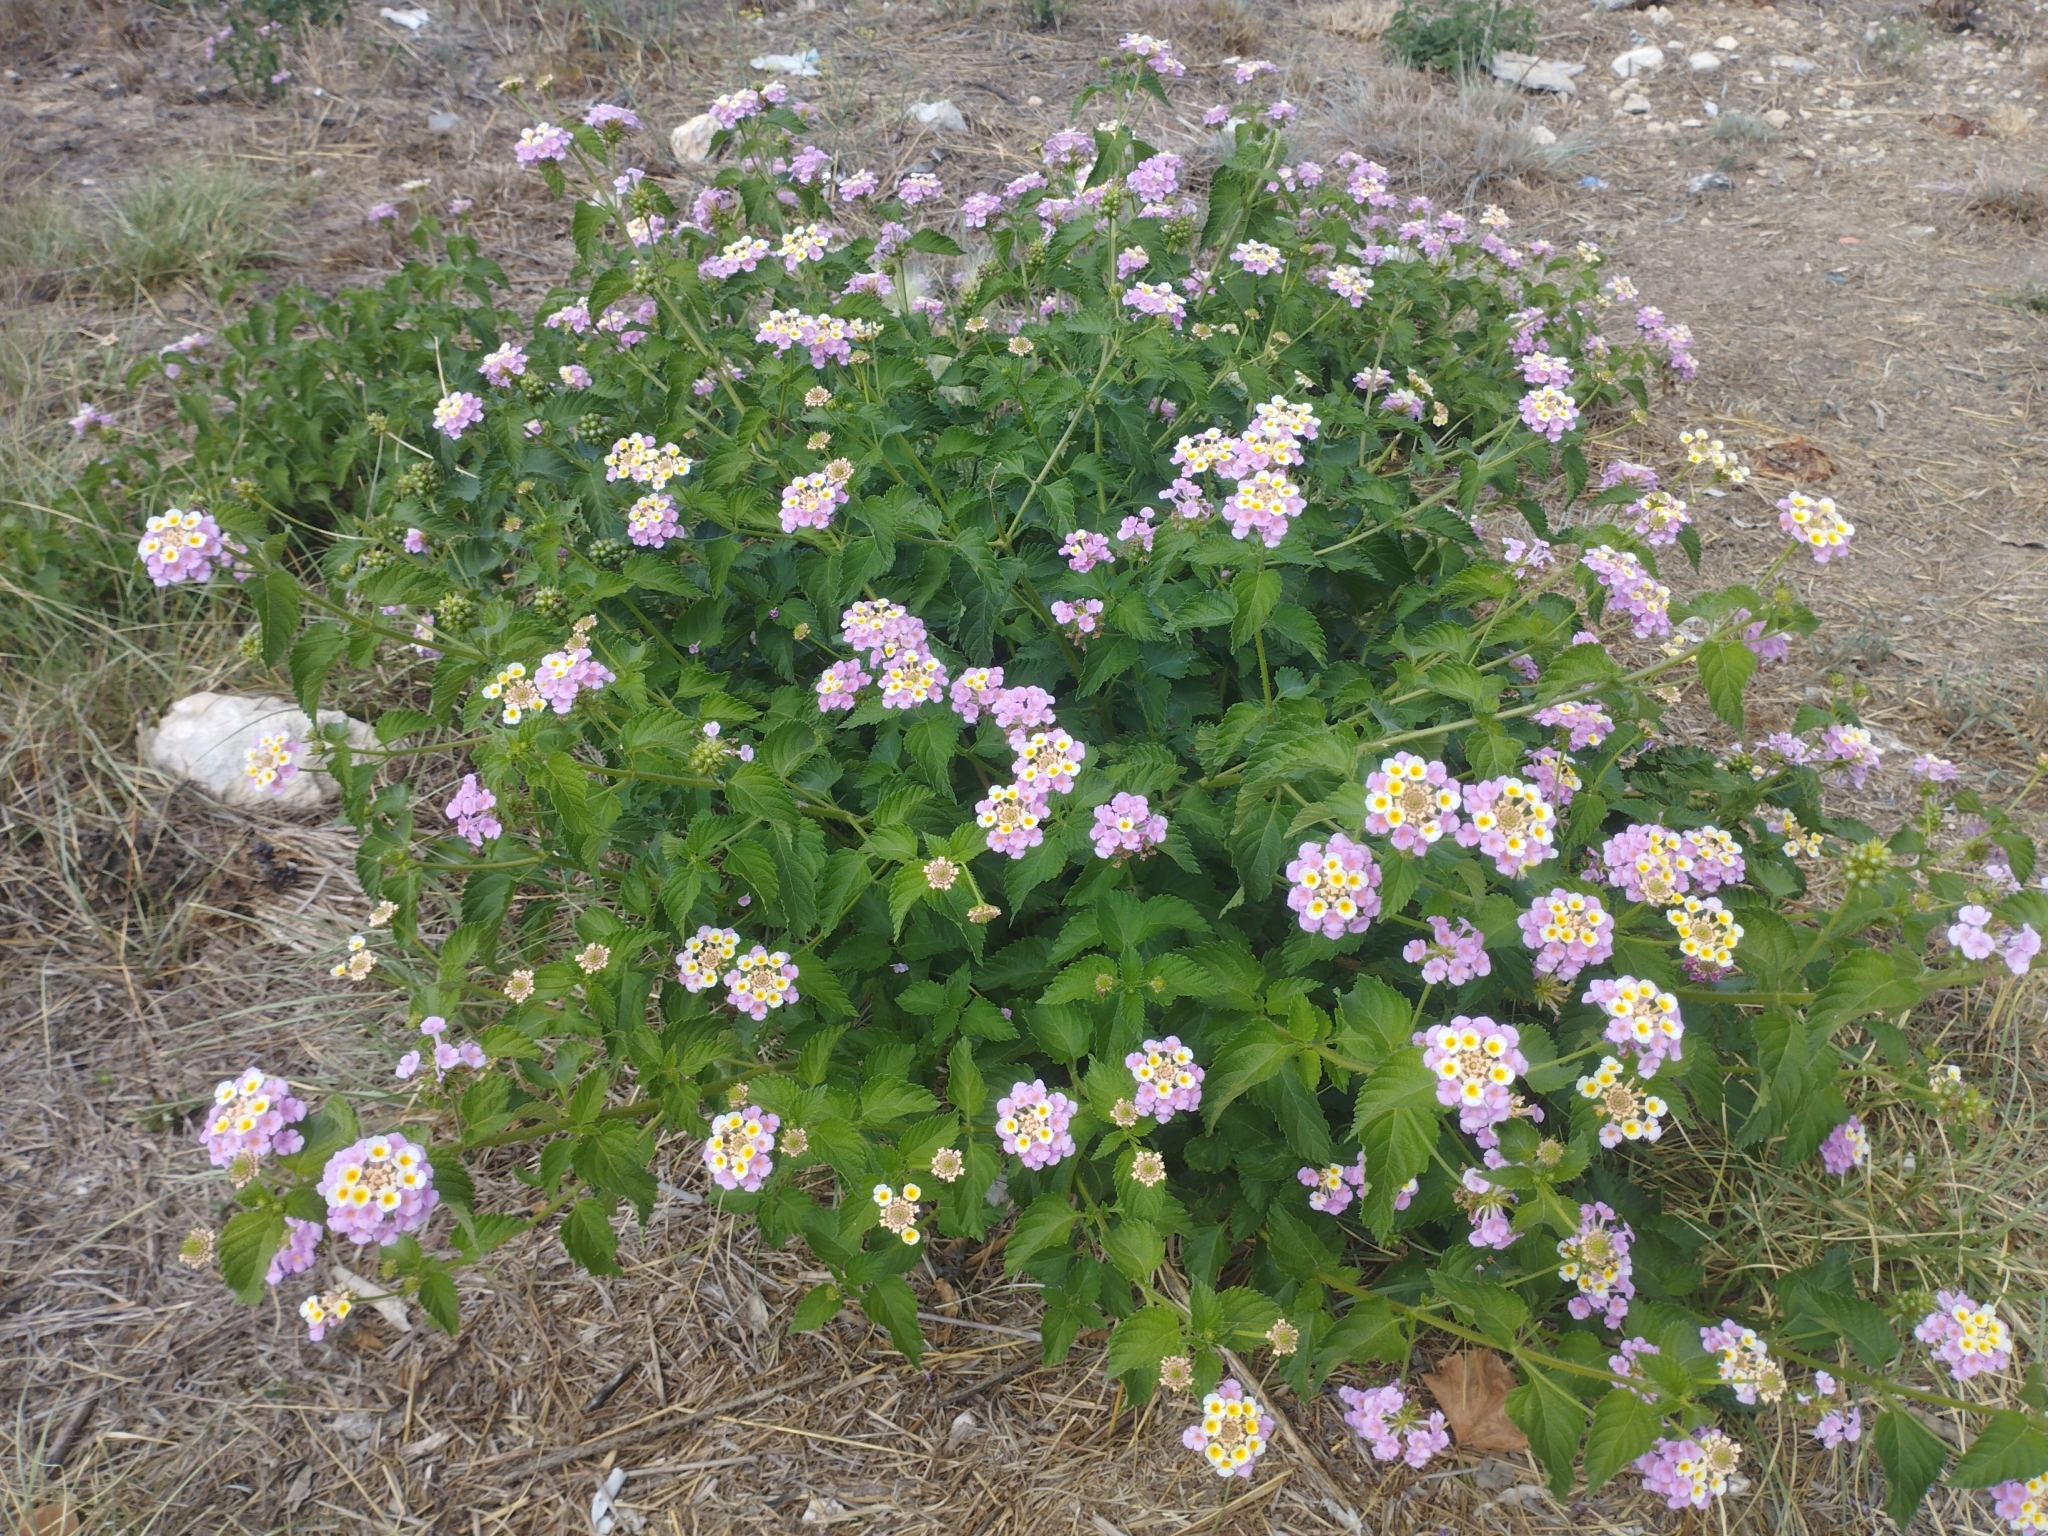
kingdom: Plantae
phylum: Tracheophyta
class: Magnoliopsida
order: Lamiales
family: Verbenaceae
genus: Lantana
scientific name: Lantana camara
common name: Lantana
